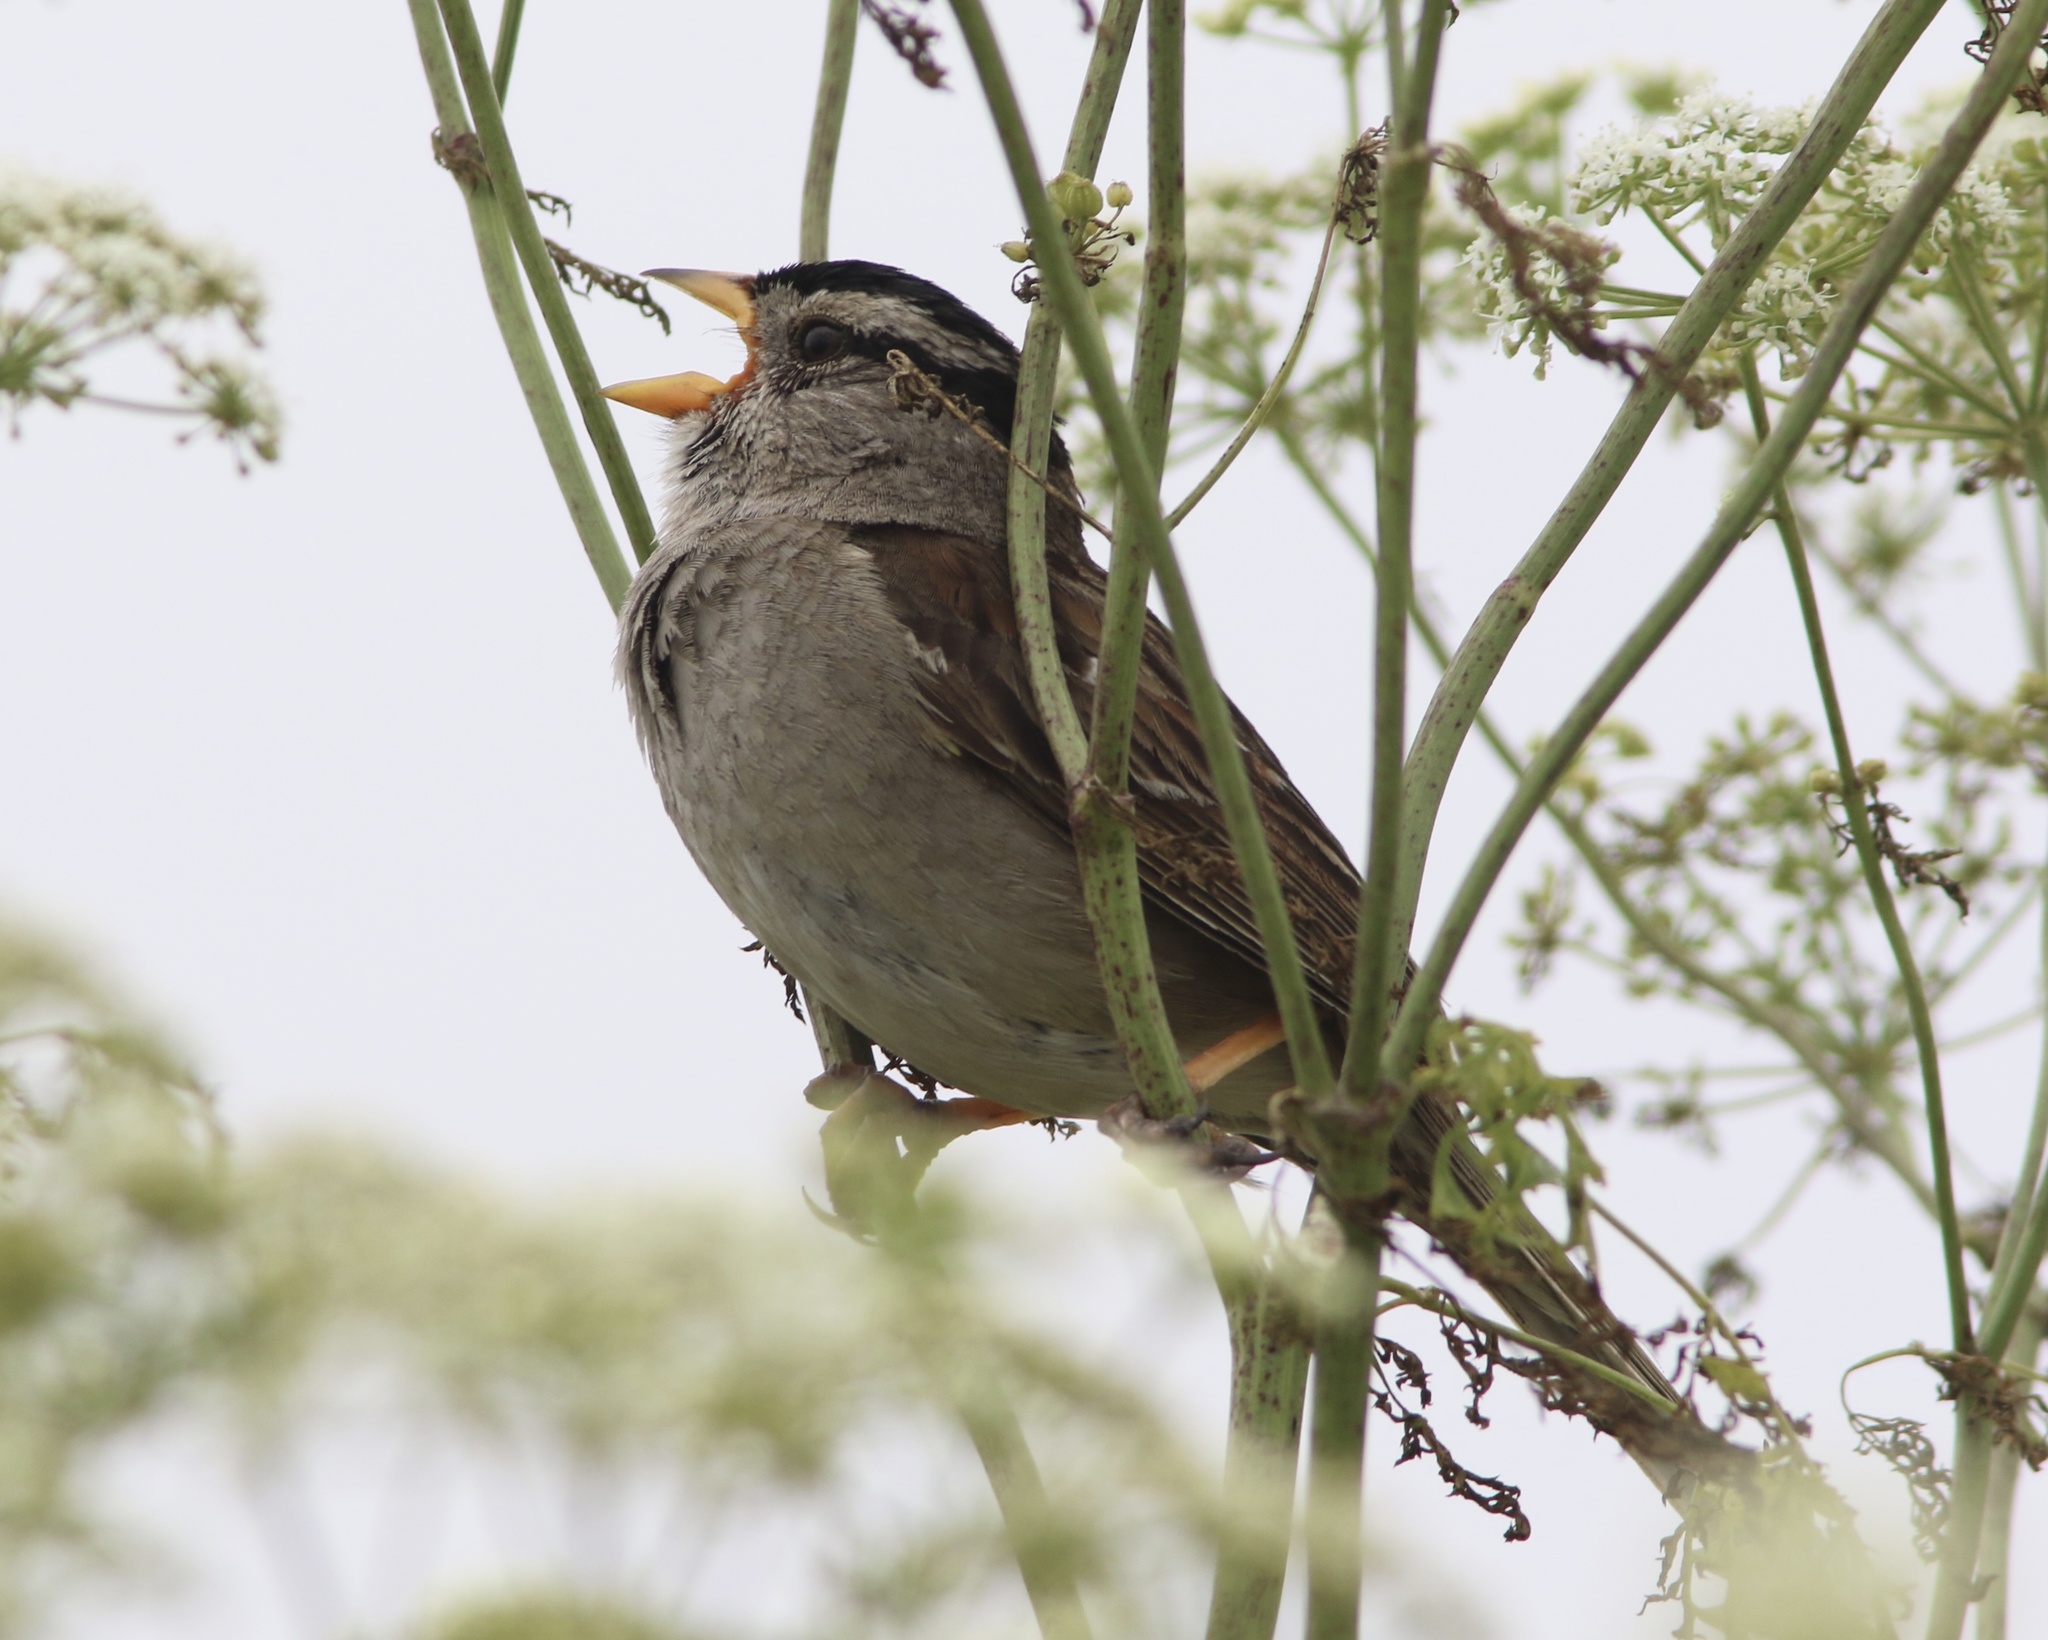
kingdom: Animalia
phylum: Chordata
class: Aves
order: Passeriformes
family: Passerellidae
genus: Zonotrichia
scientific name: Zonotrichia leucophrys
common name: White-crowned sparrow
